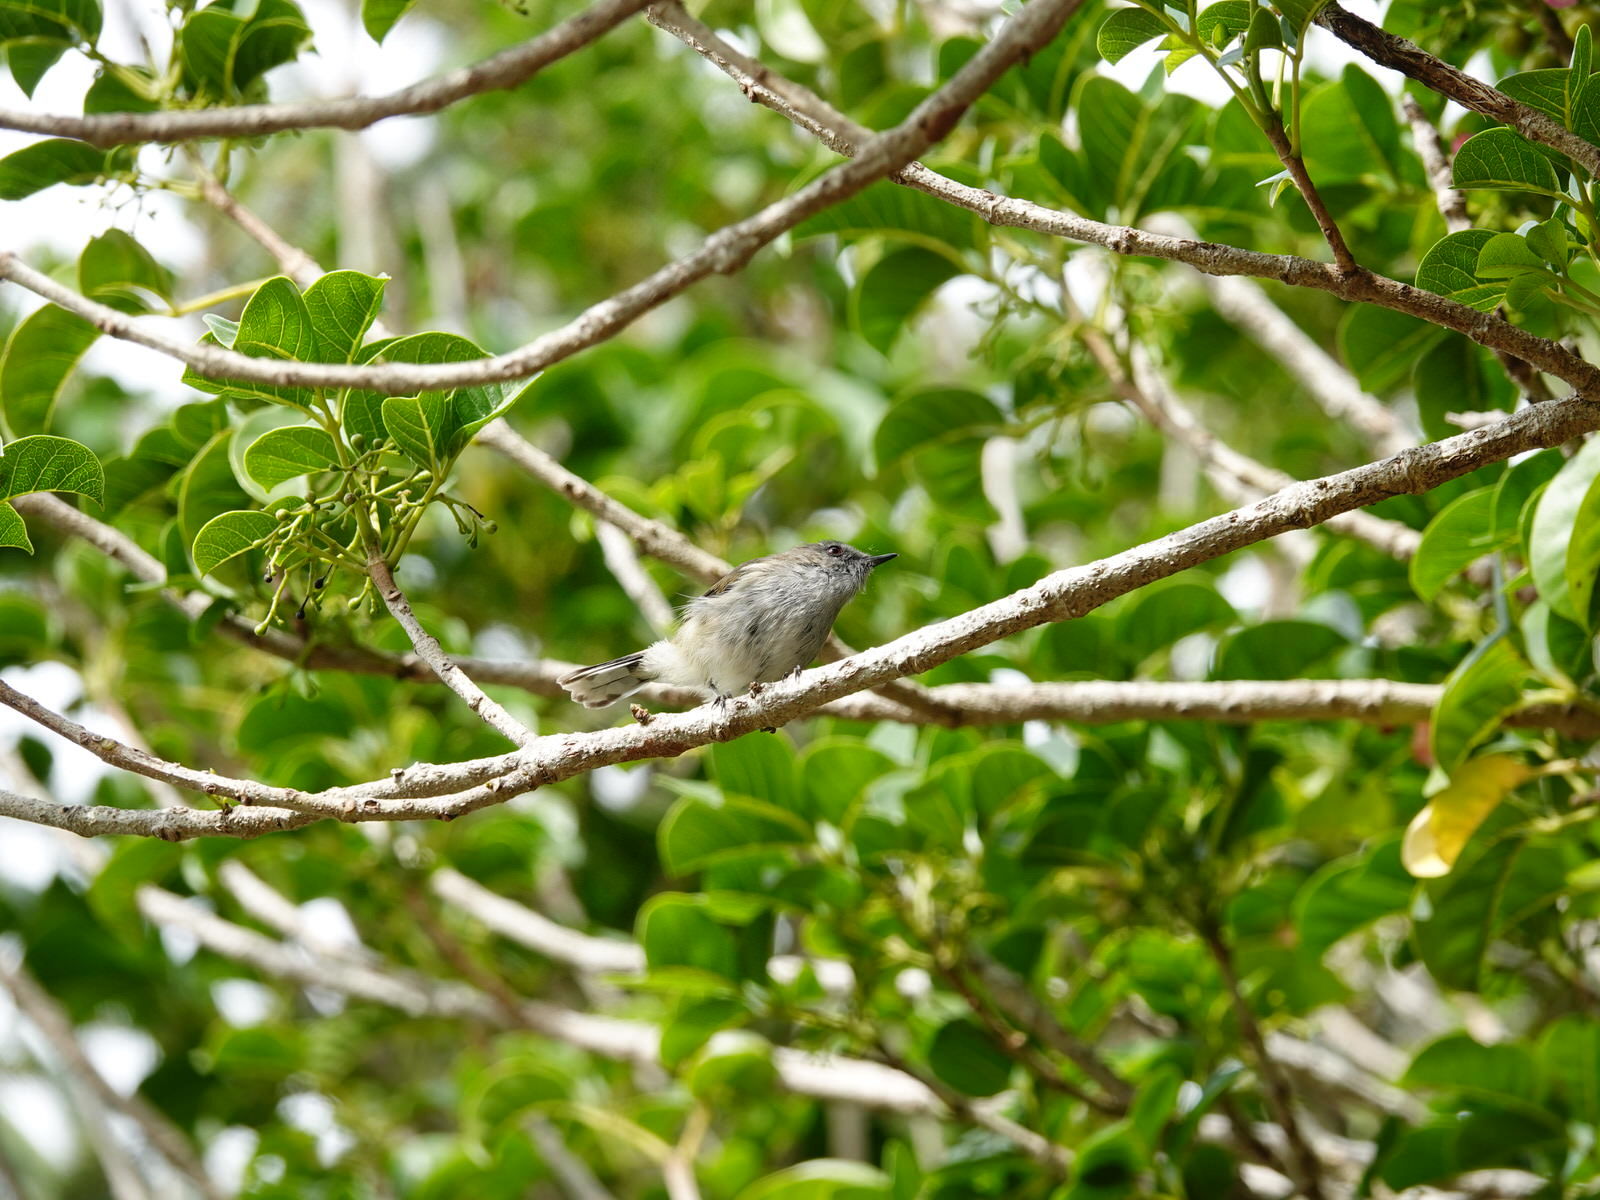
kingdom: Animalia
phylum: Chordata
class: Aves
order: Passeriformes
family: Acanthizidae
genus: Gerygone
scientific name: Gerygone igata
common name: Grey gerygone
